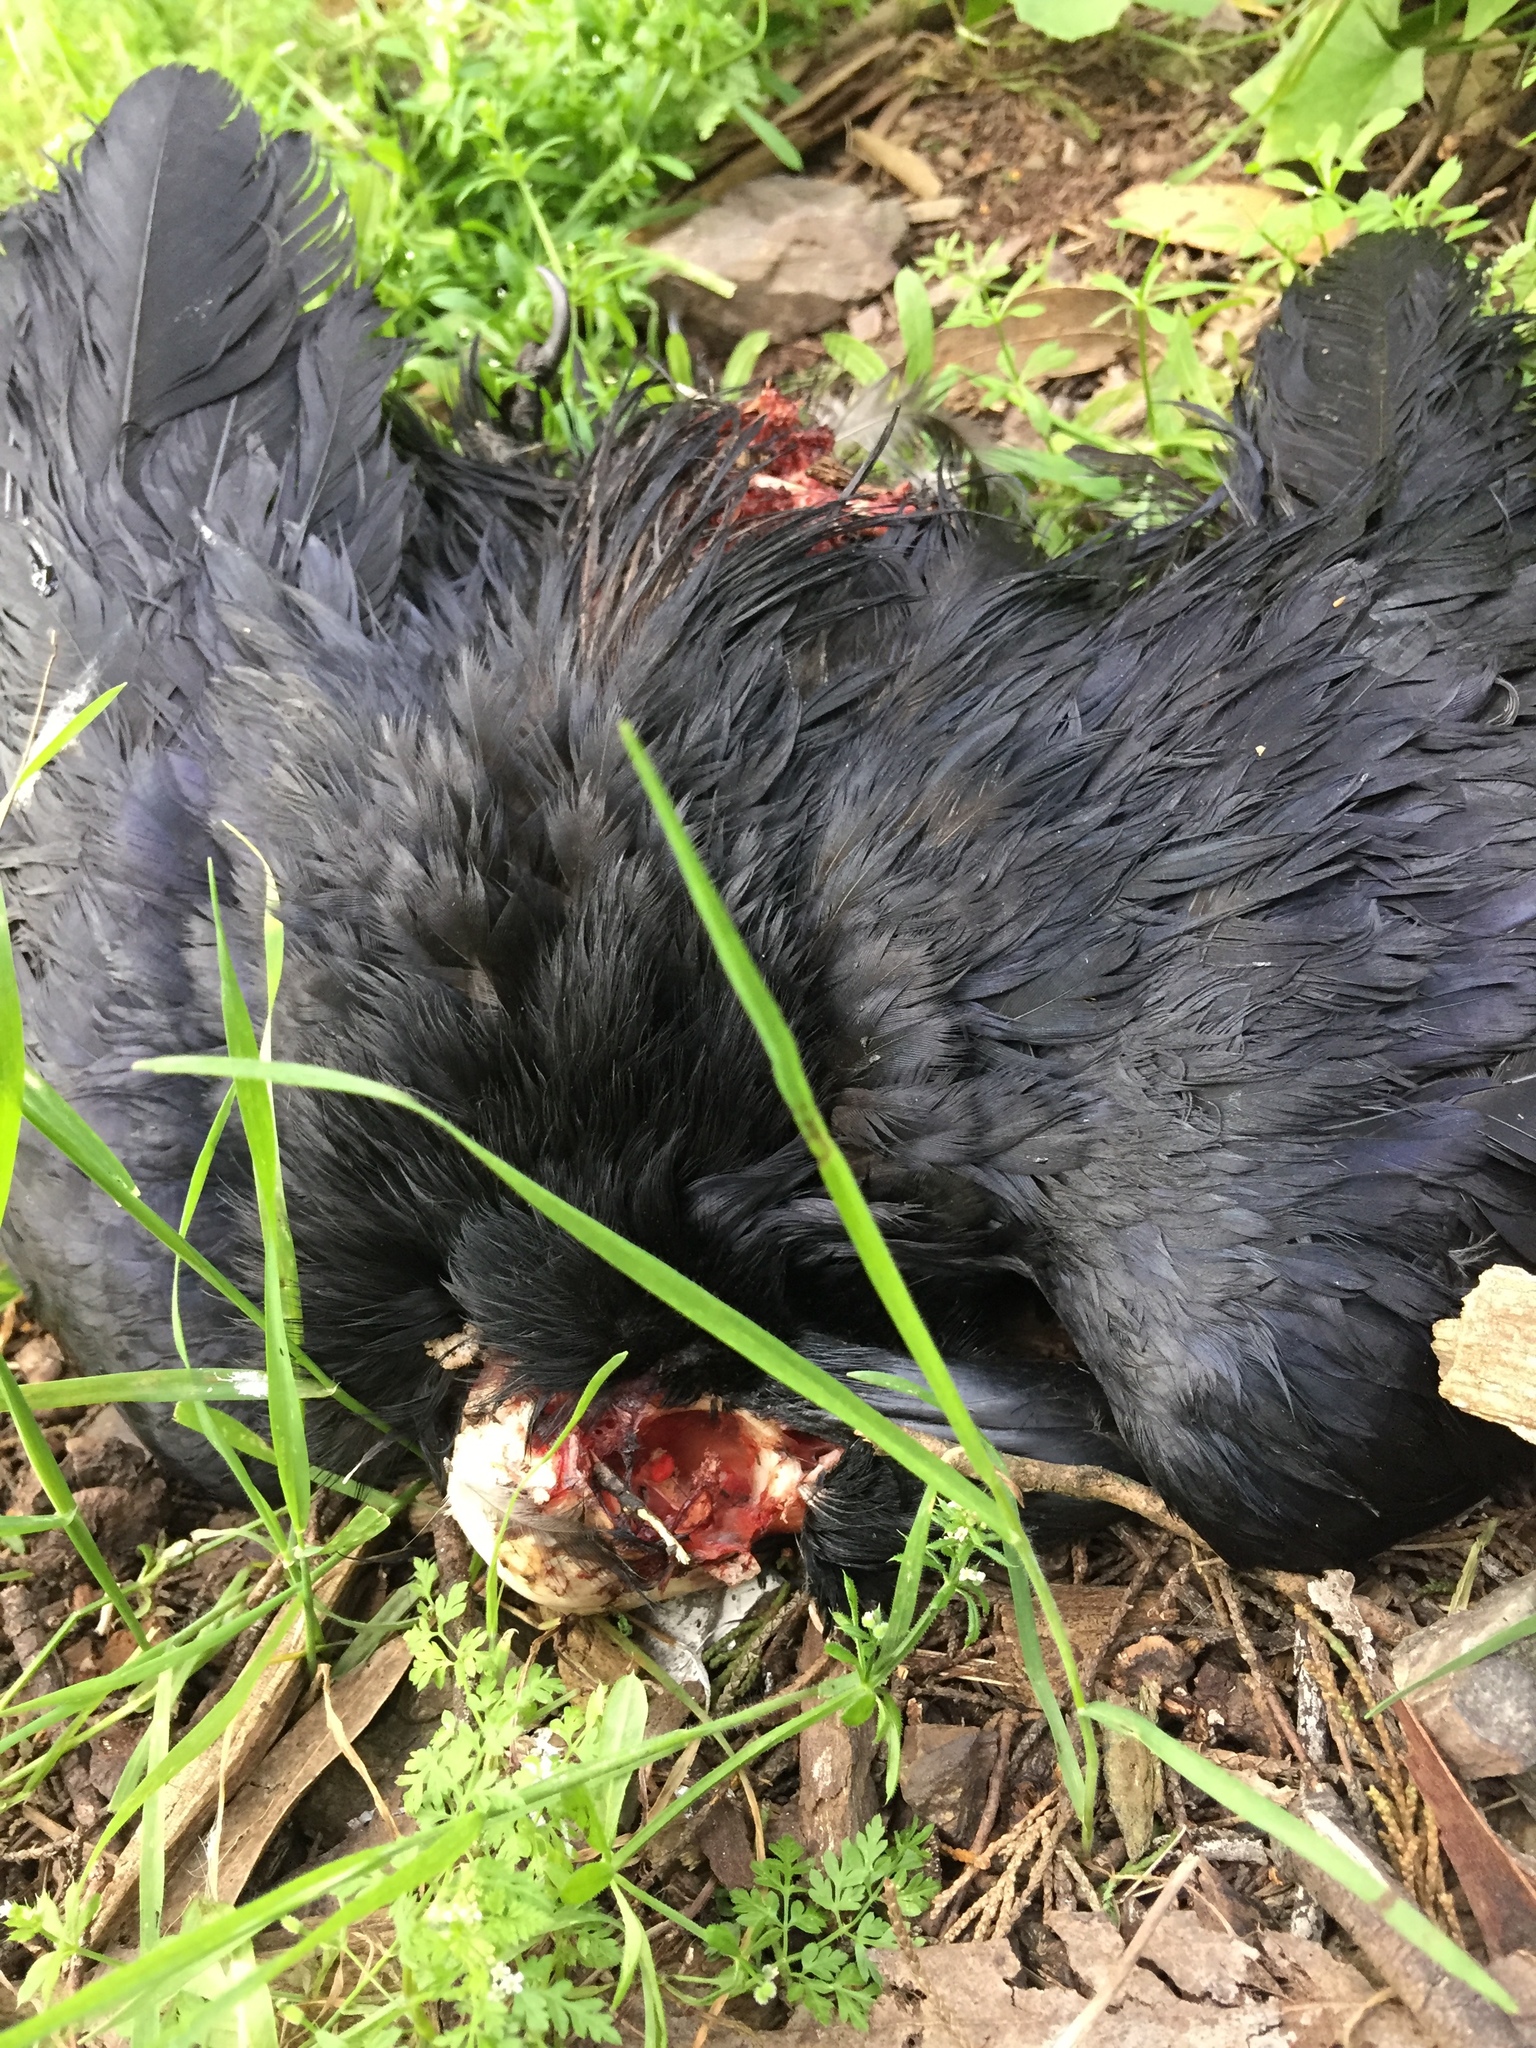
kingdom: Animalia
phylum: Chordata
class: Aves
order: Passeriformes
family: Corvidae
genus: Corvus
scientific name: Corvus corax
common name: Common raven
